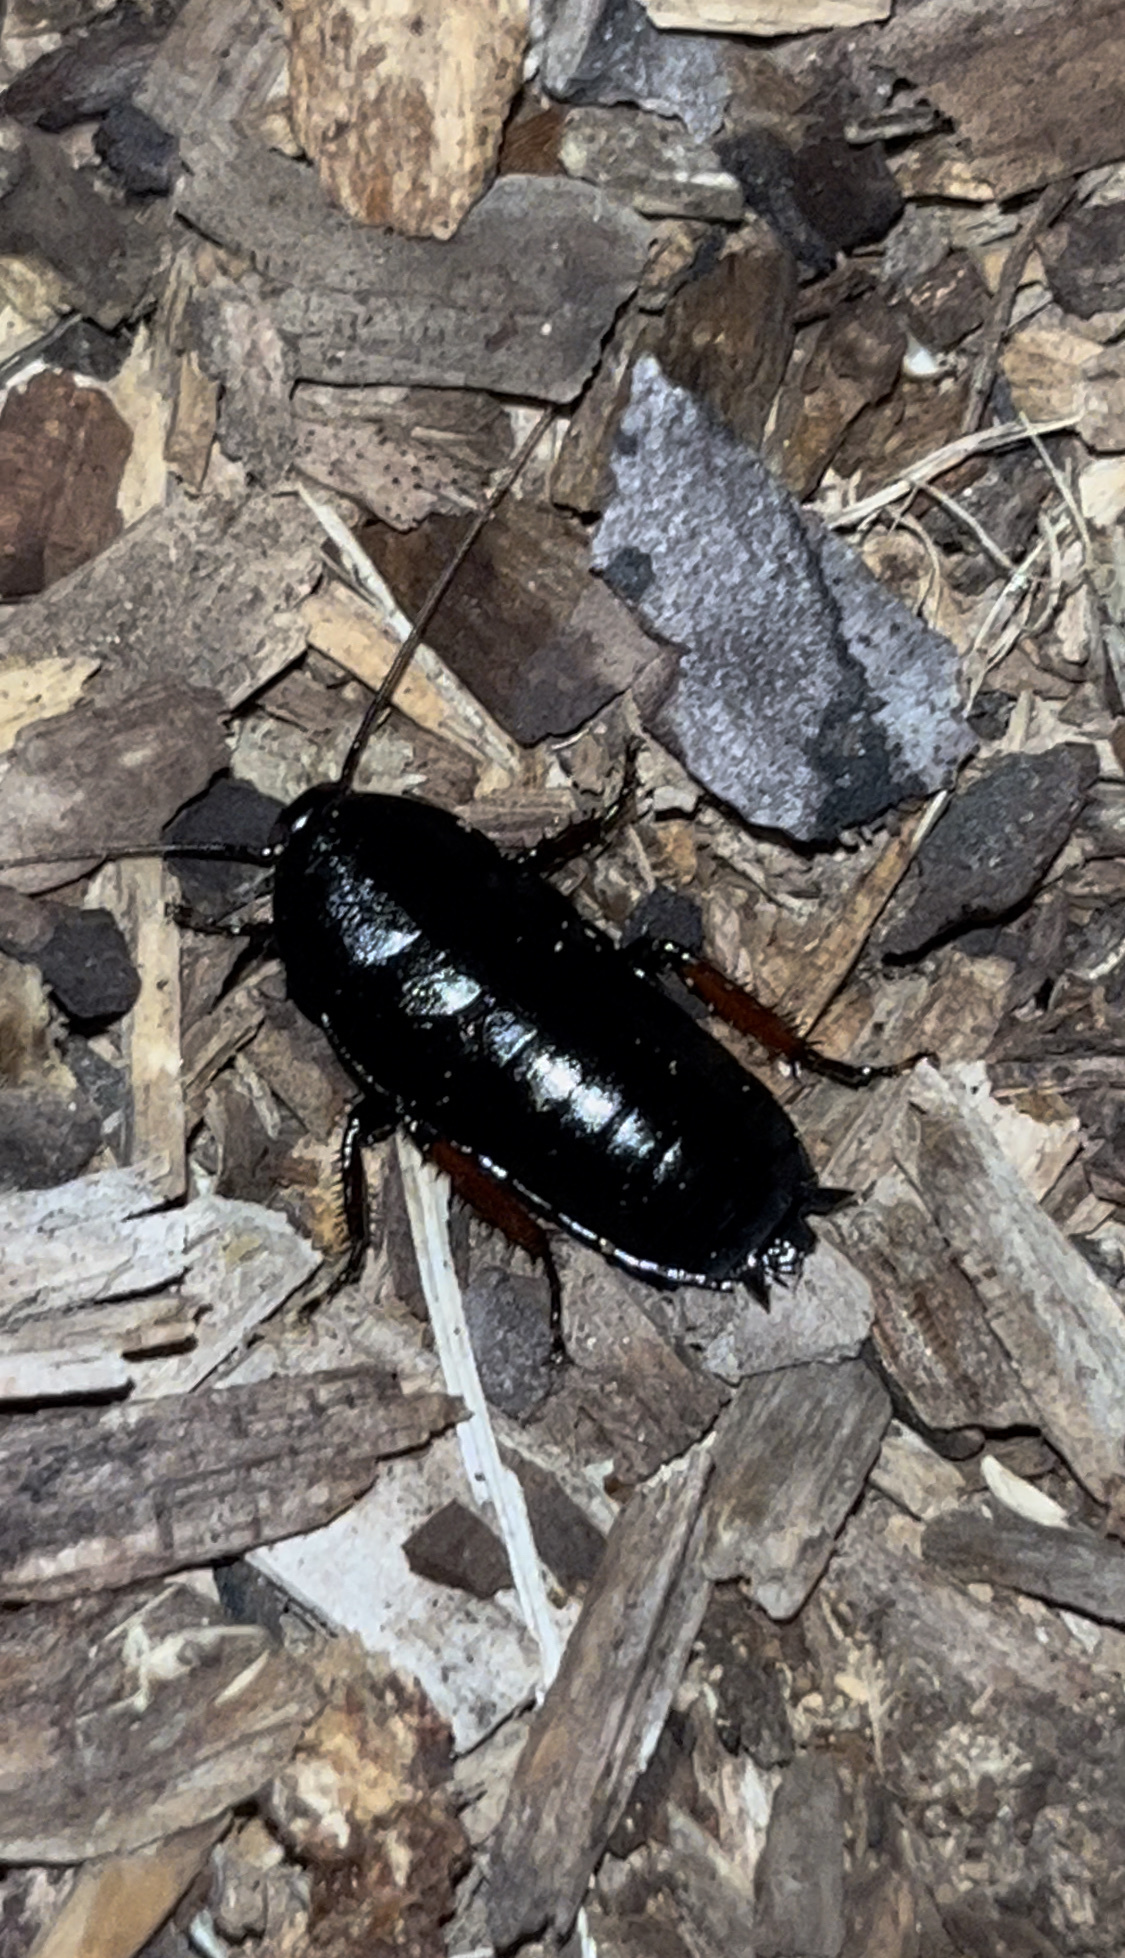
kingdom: Animalia
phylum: Arthropoda
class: Insecta
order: Blattodea
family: Blattidae
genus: Maoriblatta
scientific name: Maoriblatta novaeseelandiae
